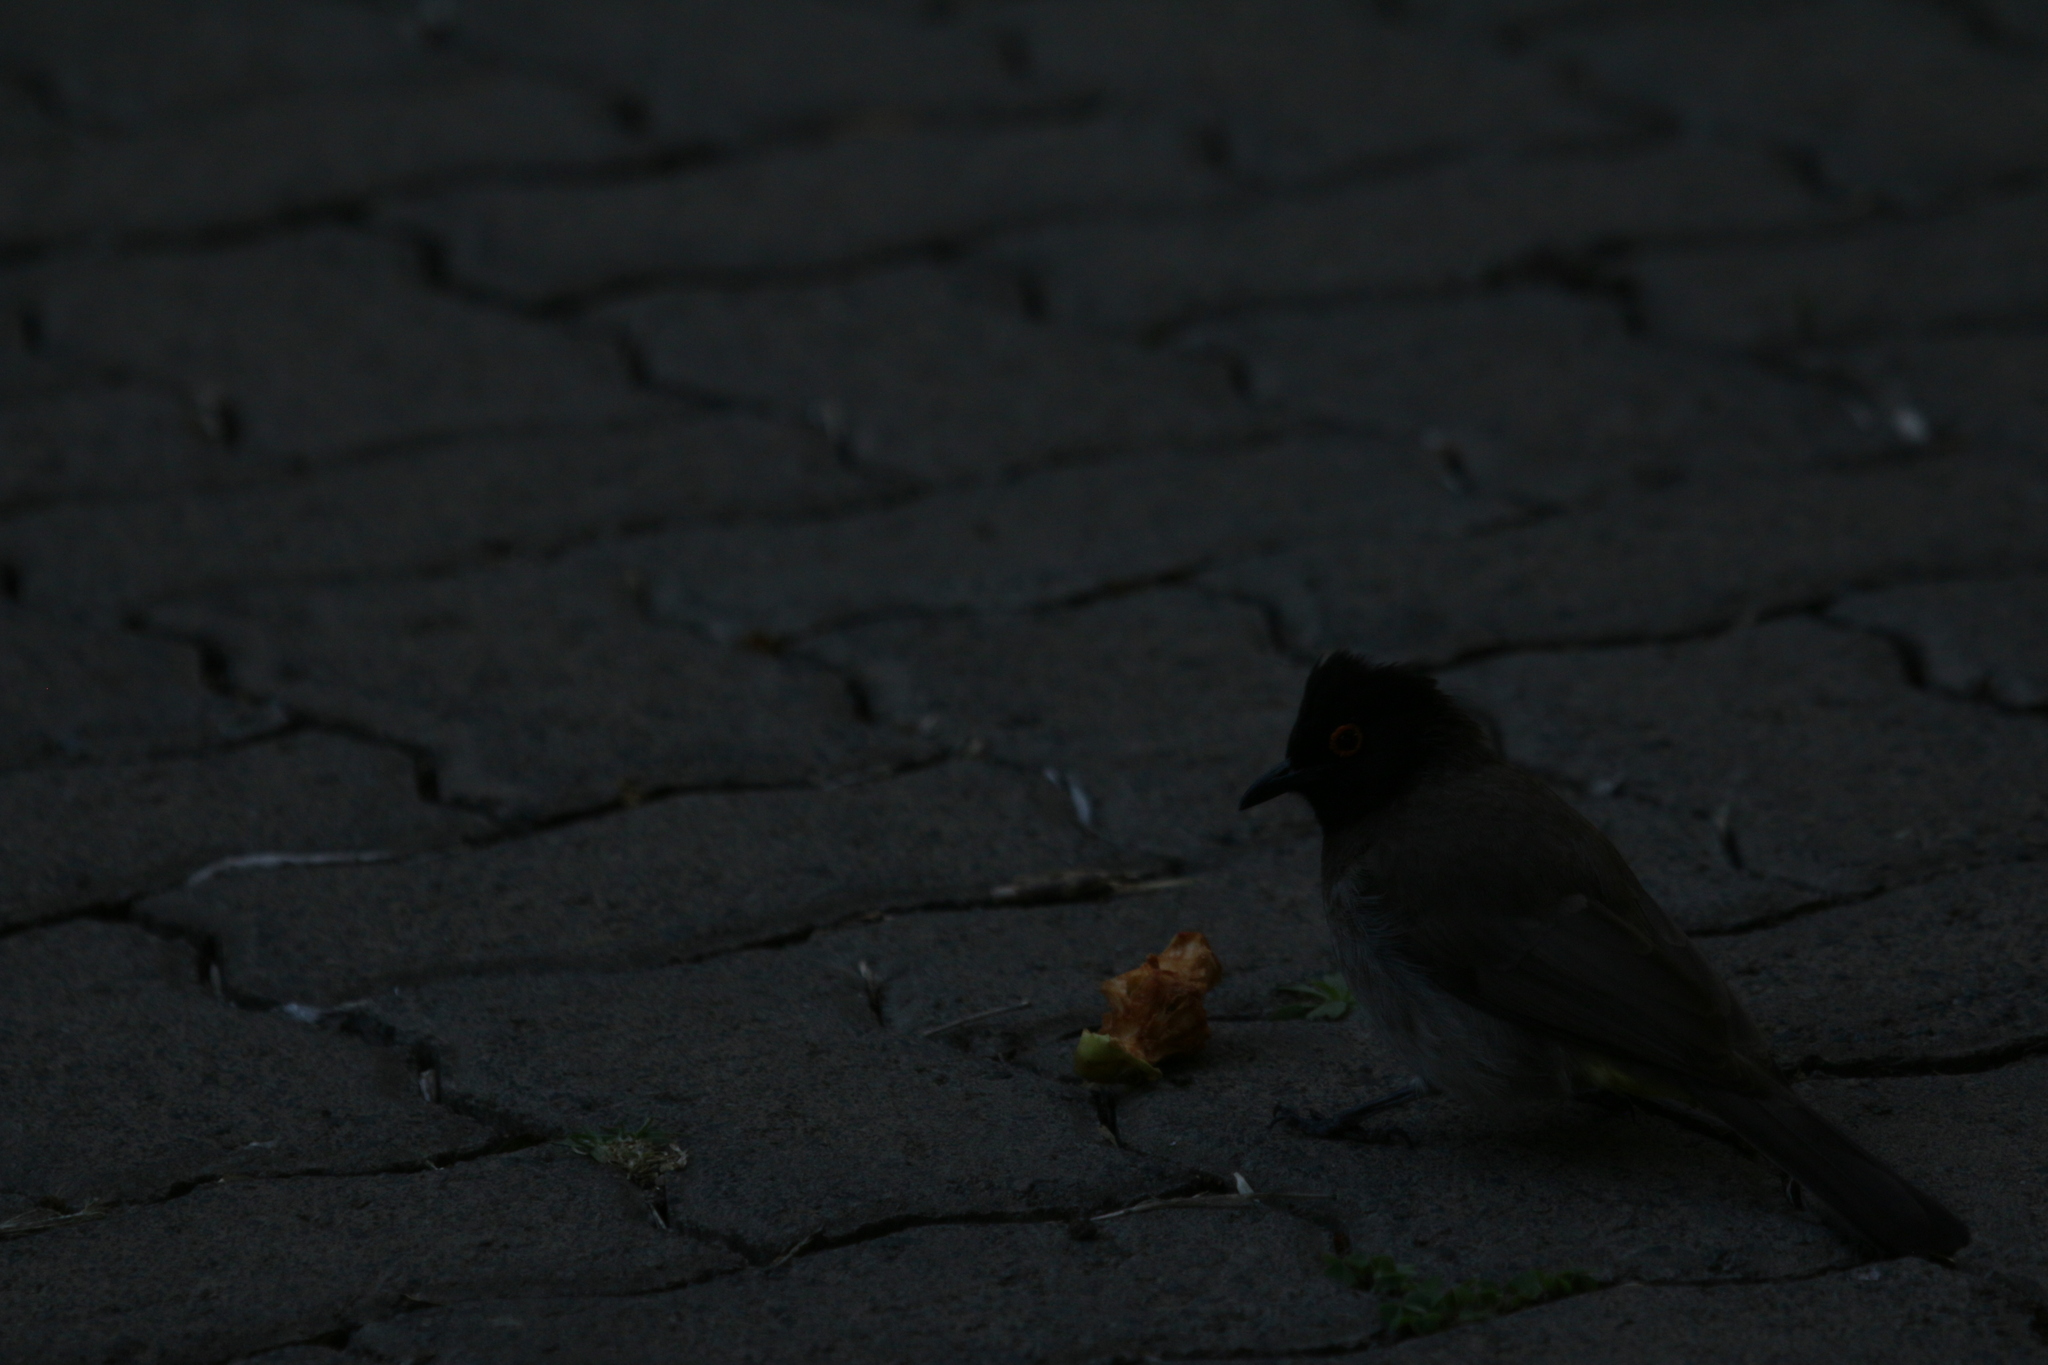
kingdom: Animalia
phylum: Chordata
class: Aves
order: Passeriformes
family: Pycnonotidae
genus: Pycnonotus
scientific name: Pycnonotus nigricans
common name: African red-eyed bulbul
